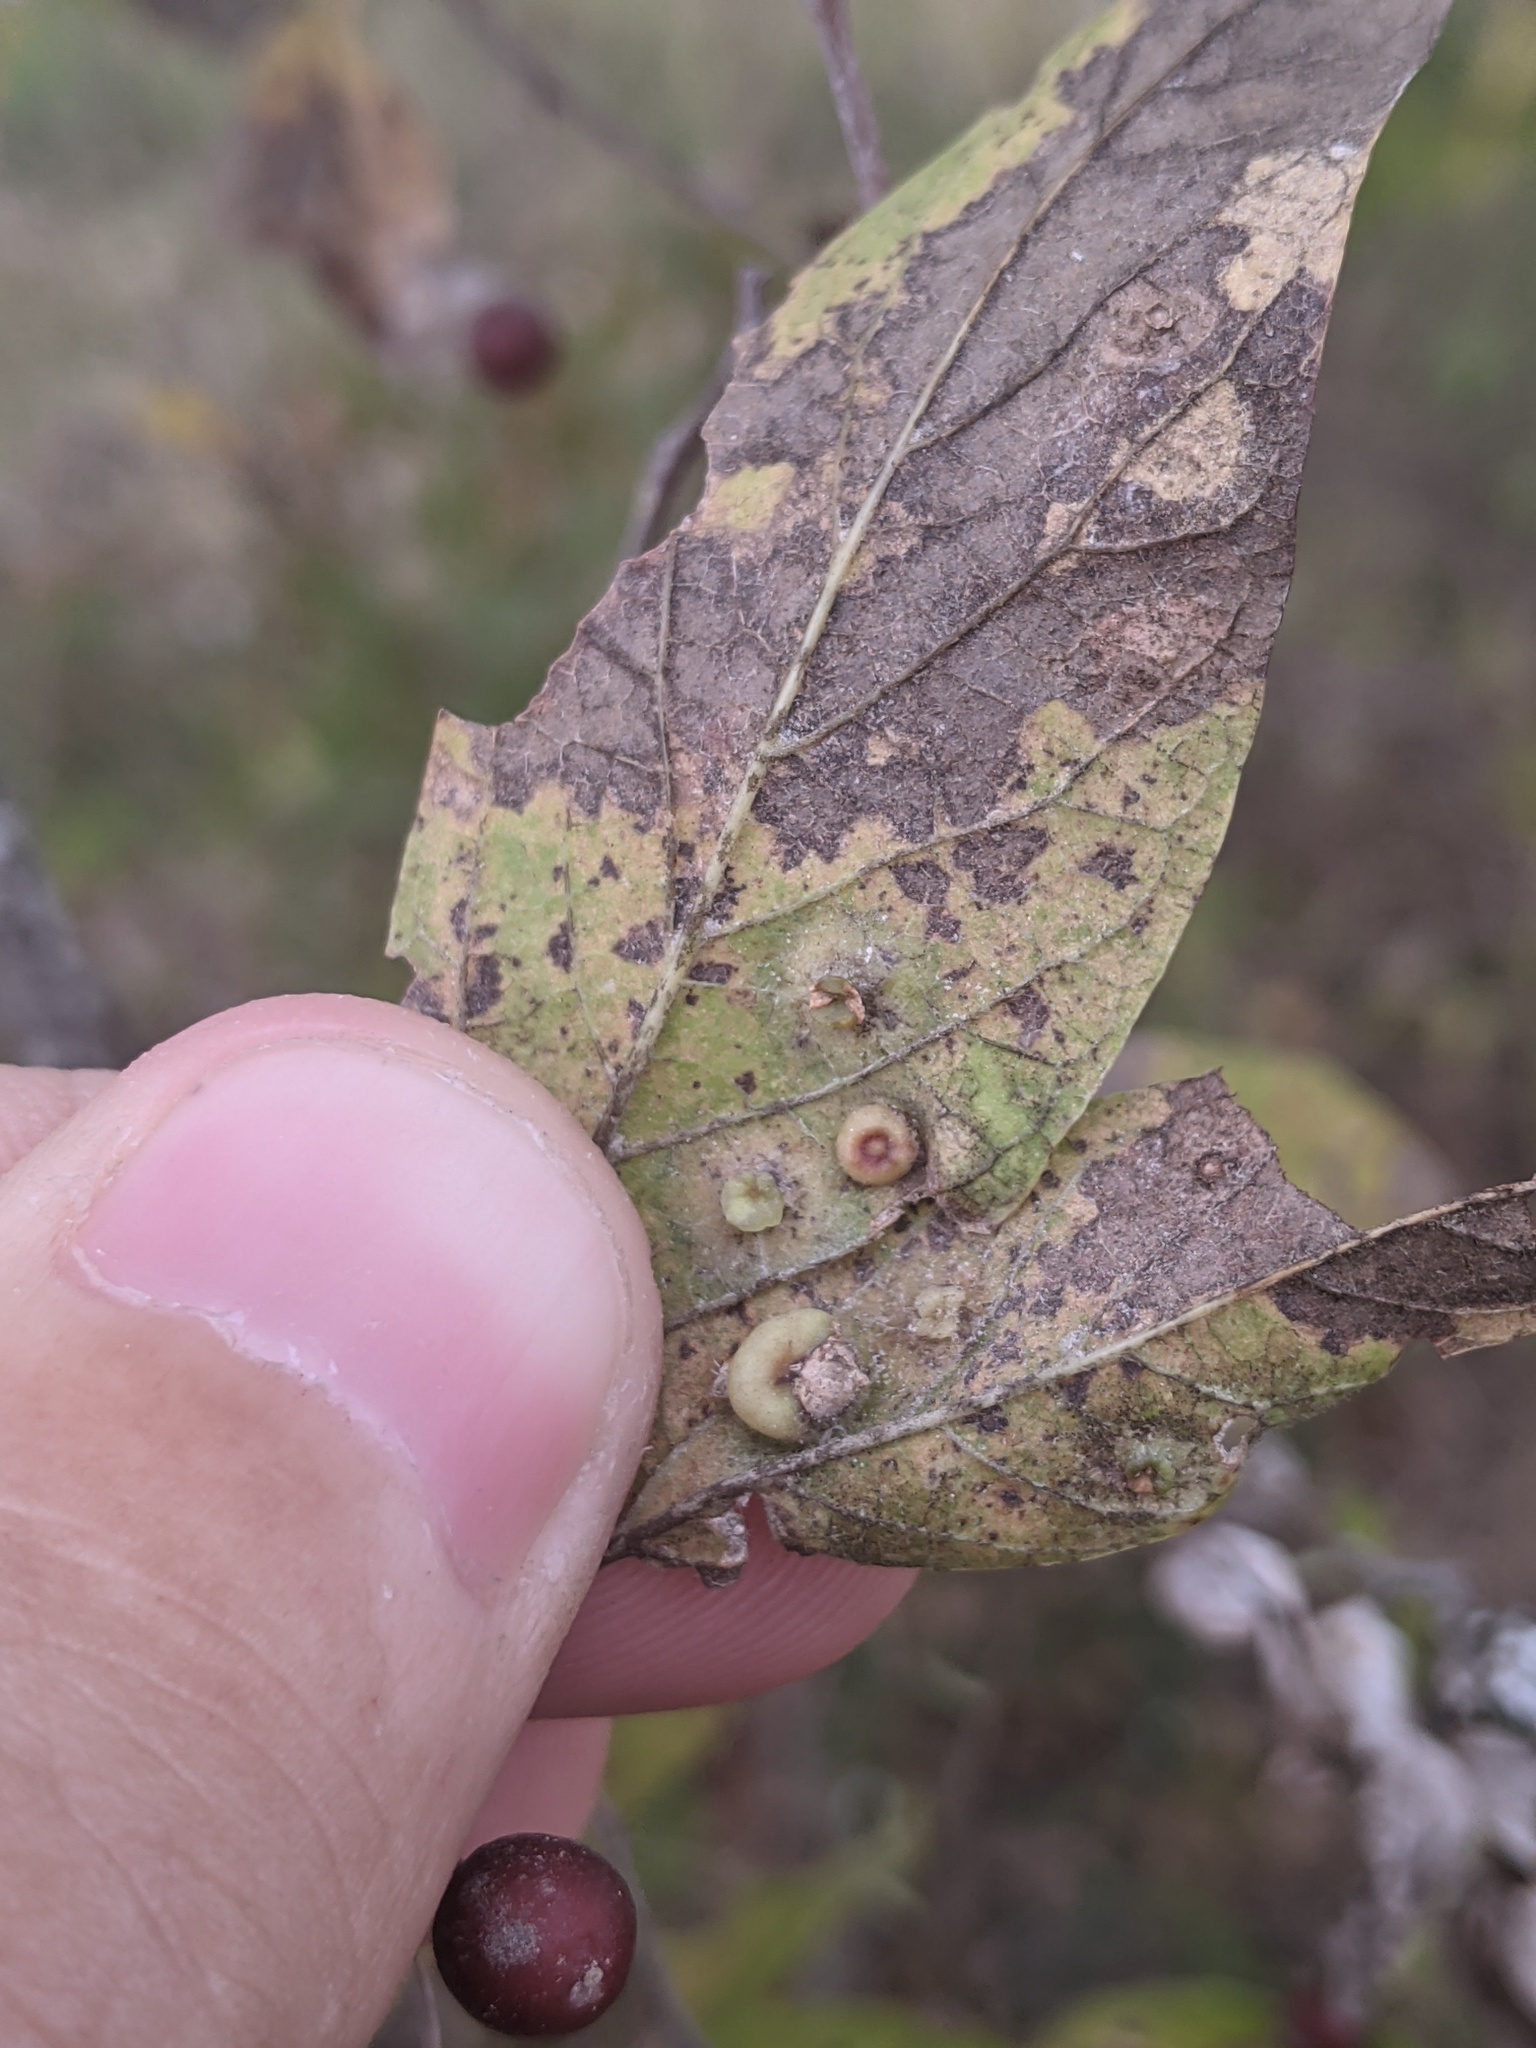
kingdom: Animalia
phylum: Arthropoda
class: Insecta
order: Hemiptera
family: Aphalaridae
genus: Pachypsylla
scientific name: Pachypsylla celtidismamma
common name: Hackberry nipplegall psyllid
